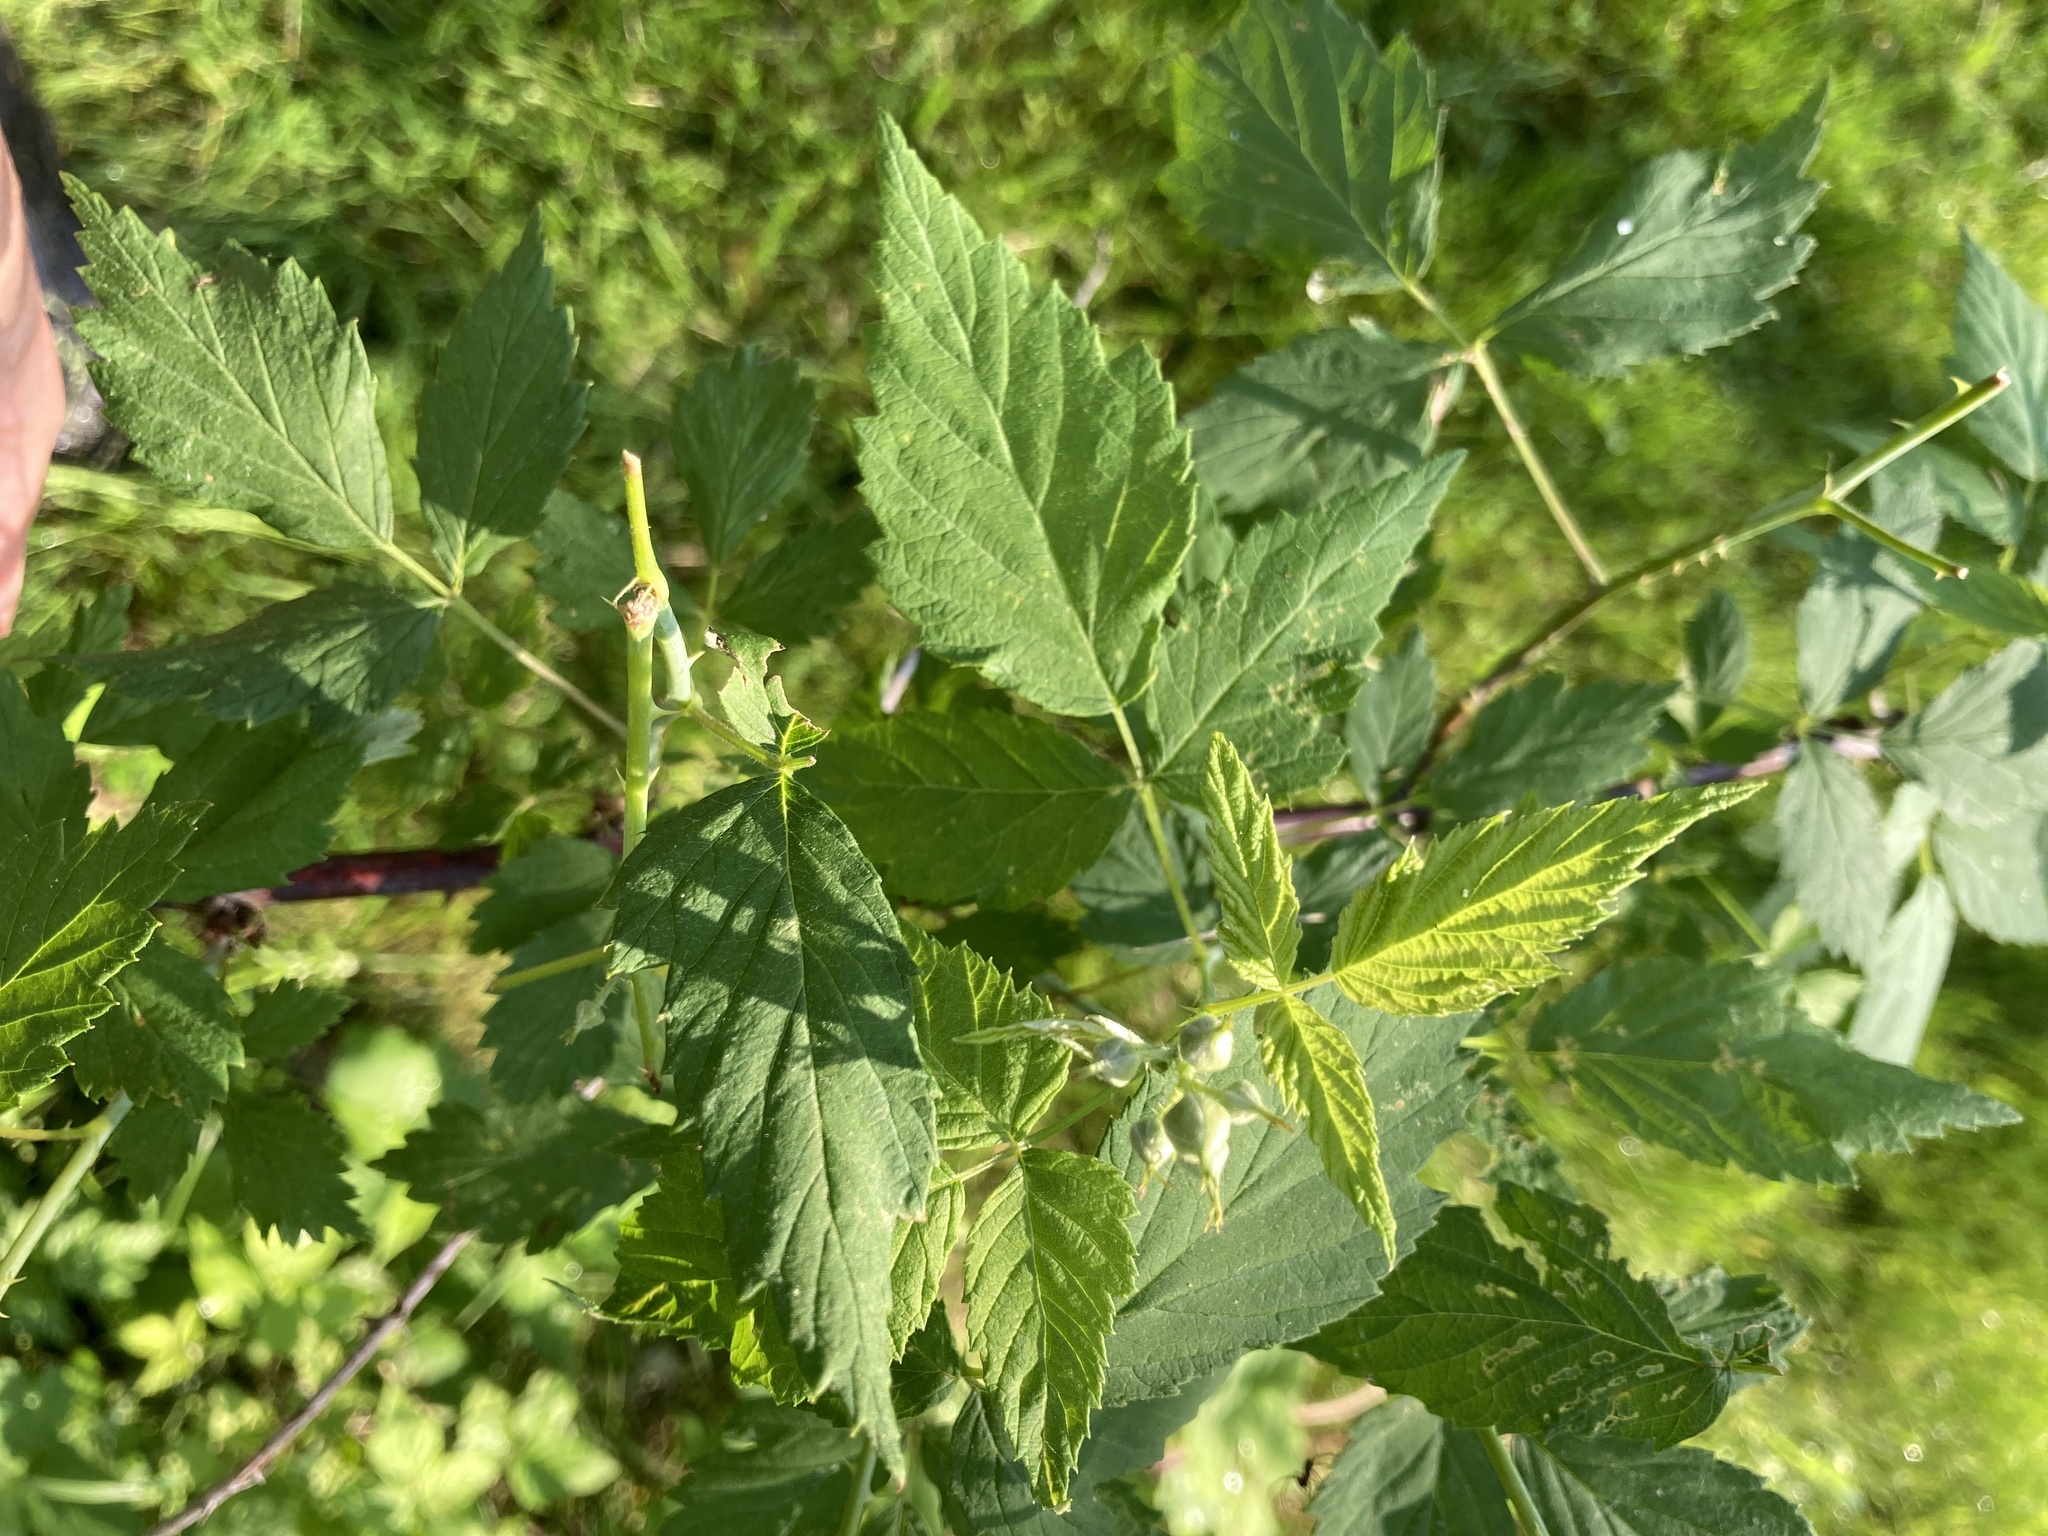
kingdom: Plantae
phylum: Tracheophyta
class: Magnoliopsida
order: Rosales
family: Rosaceae
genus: Rubus
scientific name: Rubus occidentalis
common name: Black raspberry
